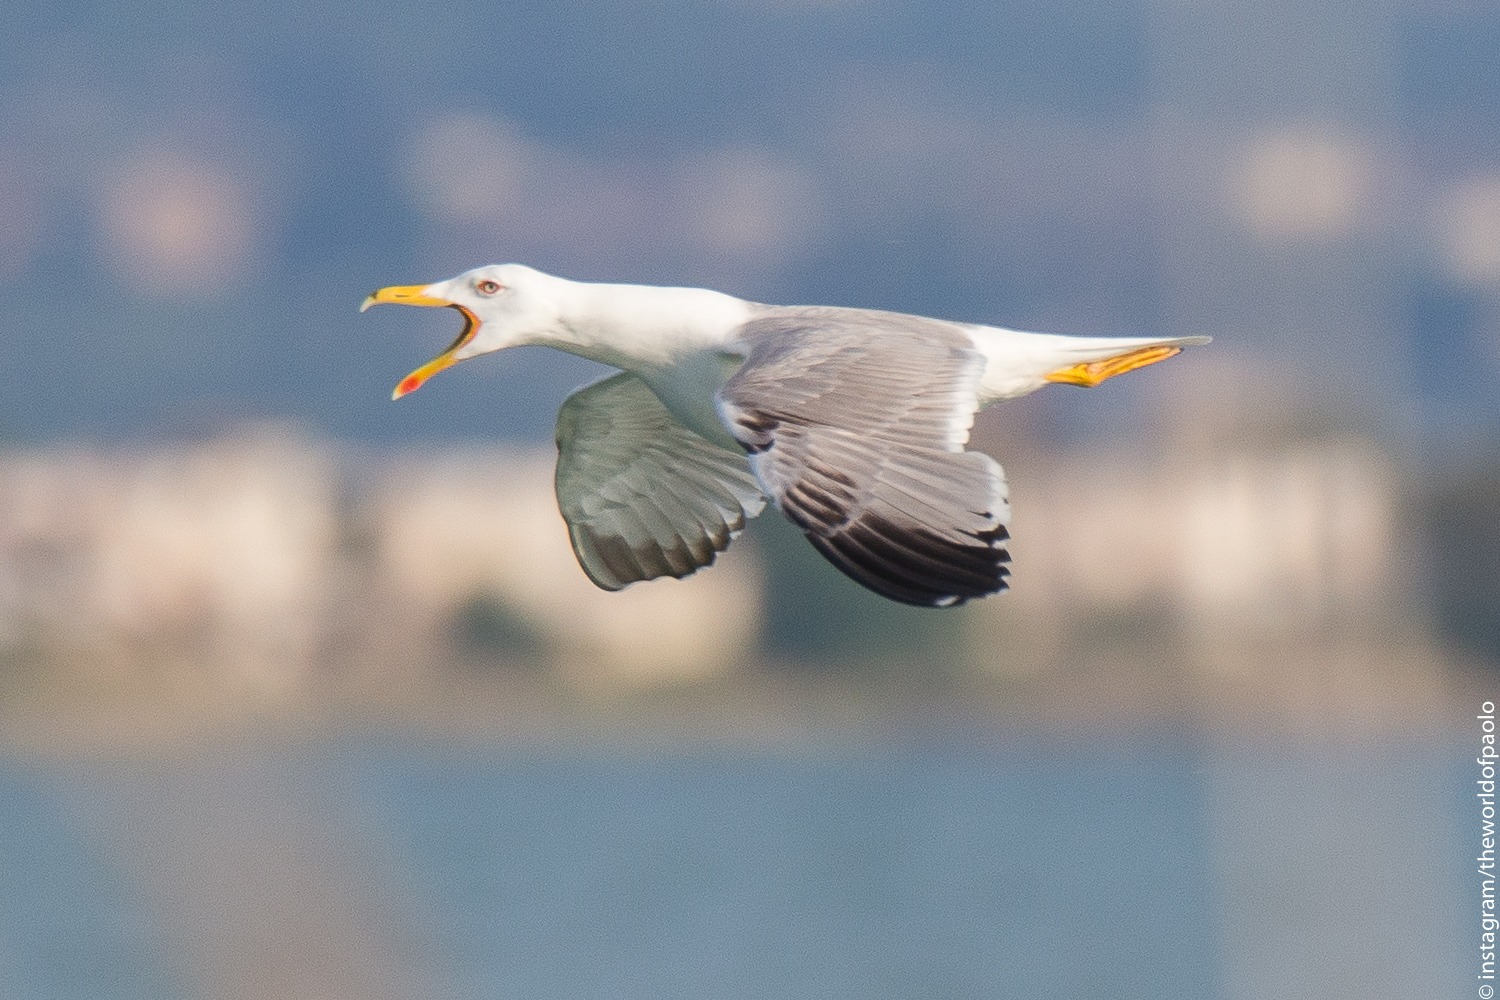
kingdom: Animalia
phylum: Chordata
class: Aves
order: Charadriiformes
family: Laridae
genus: Larus
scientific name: Larus michahellis
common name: Yellow-legged gull
